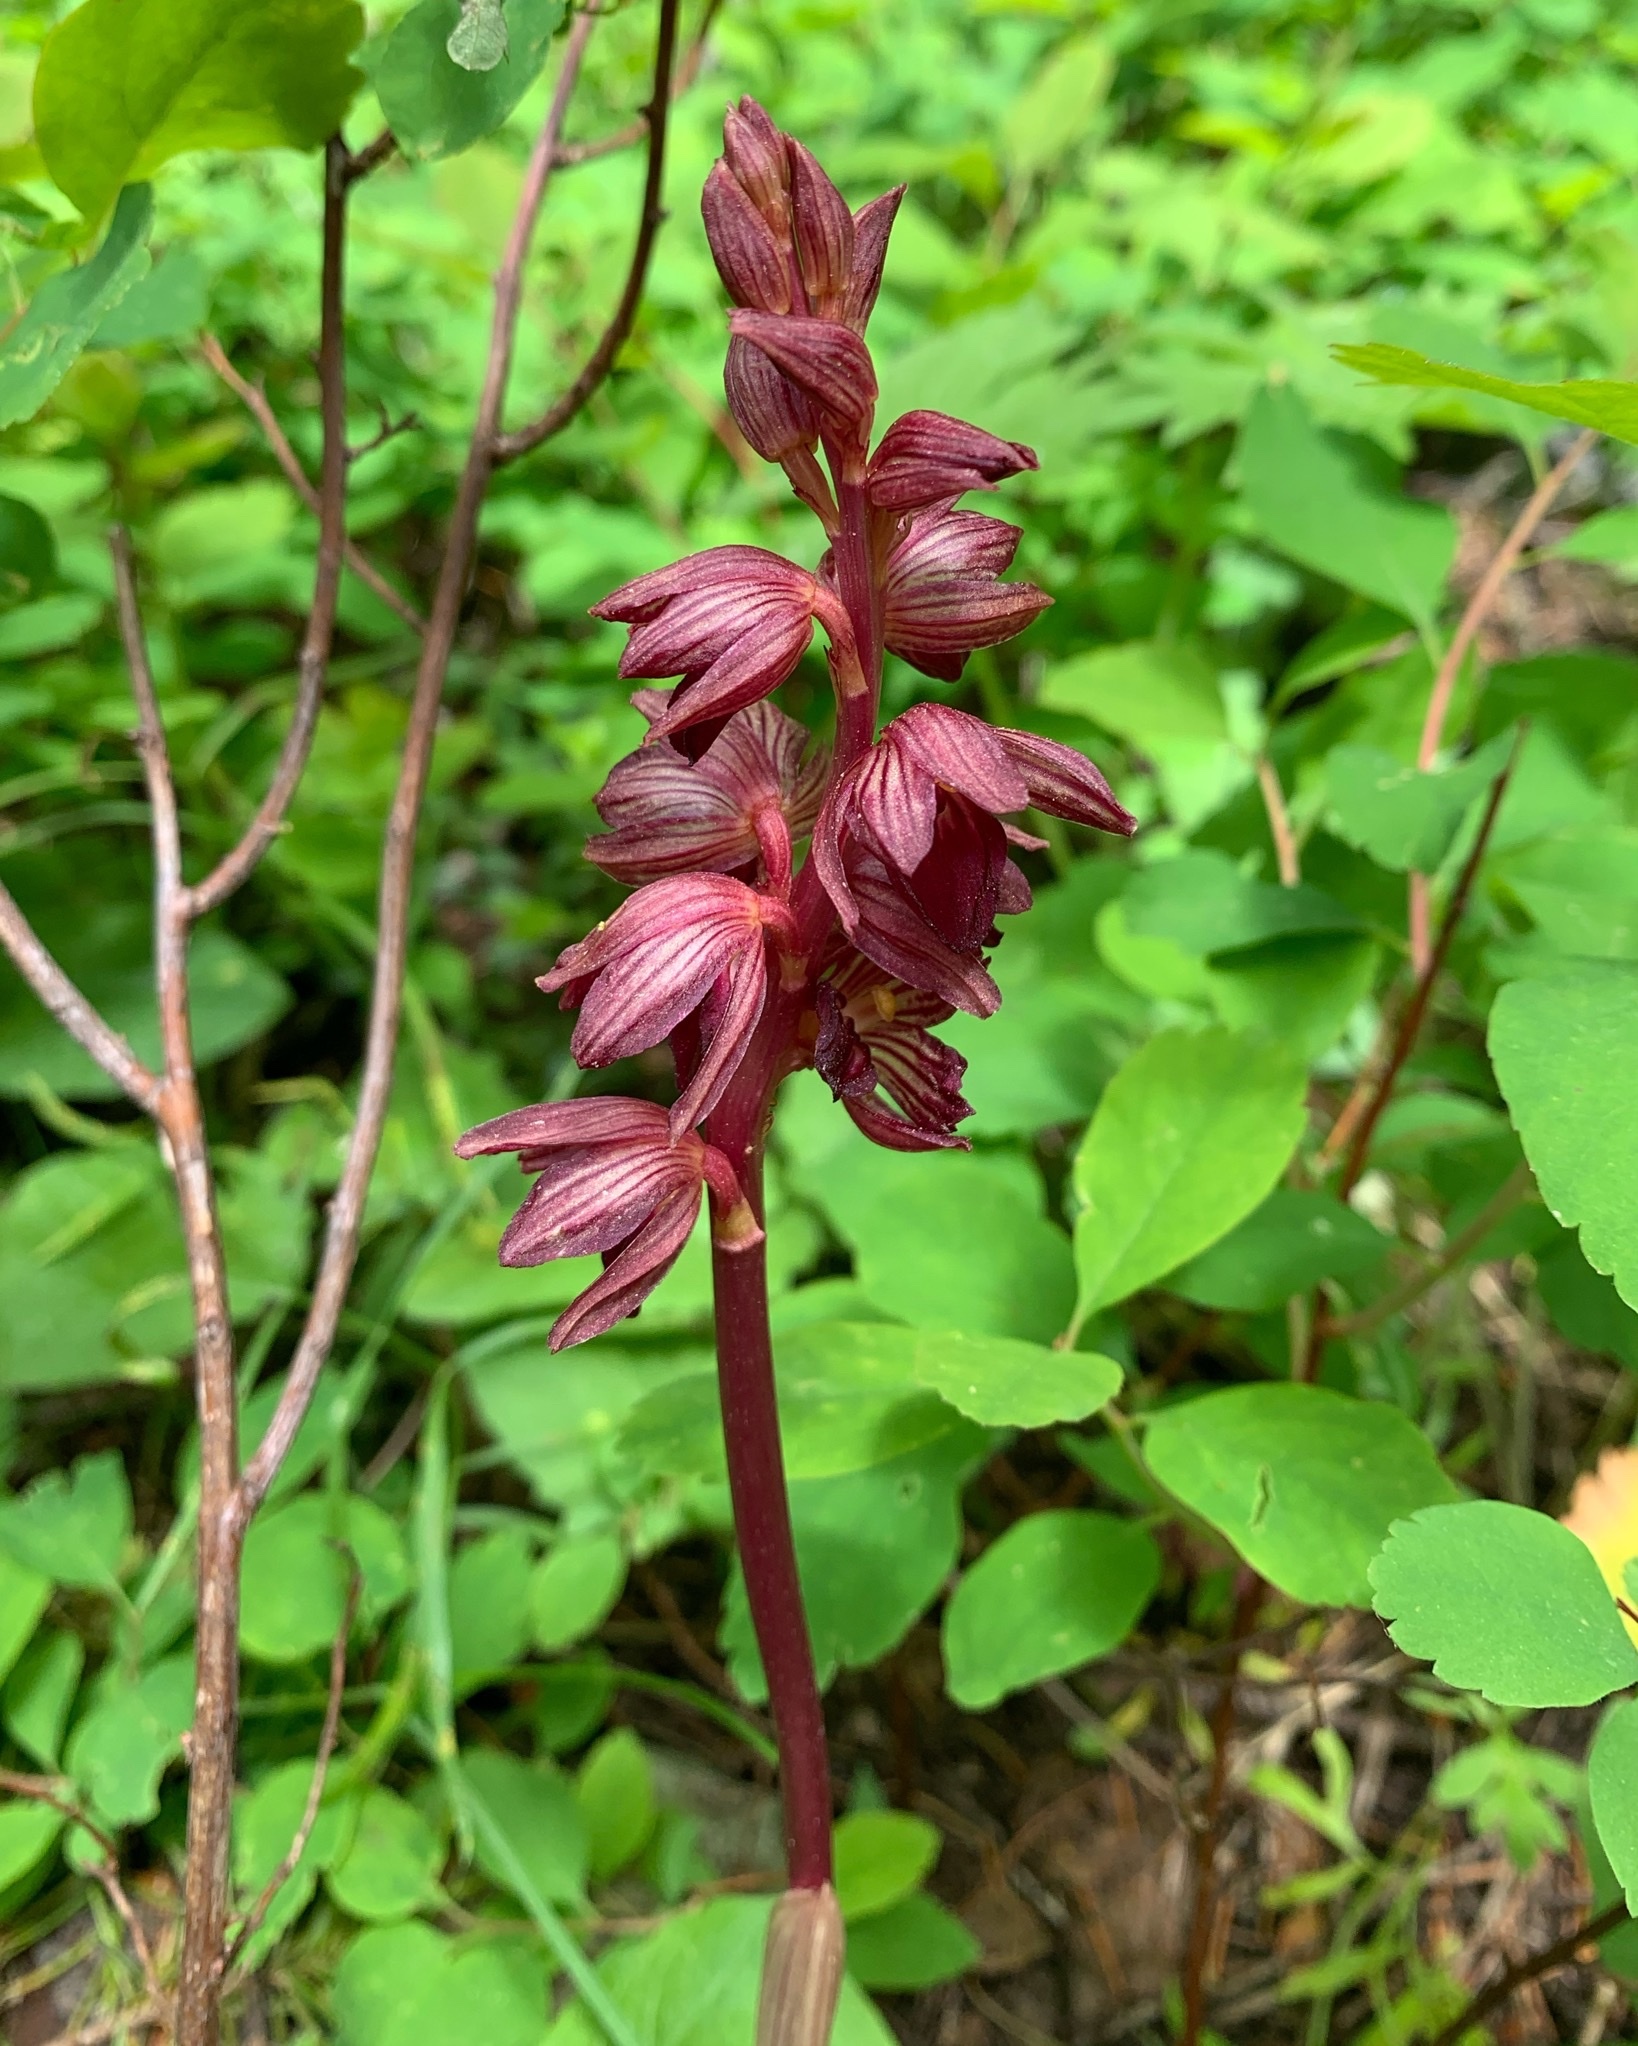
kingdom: Plantae
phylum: Tracheophyta
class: Liliopsida
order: Asparagales
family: Orchidaceae
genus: Corallorhiza
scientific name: Corallorhiza striata
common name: Hooded coralroot
